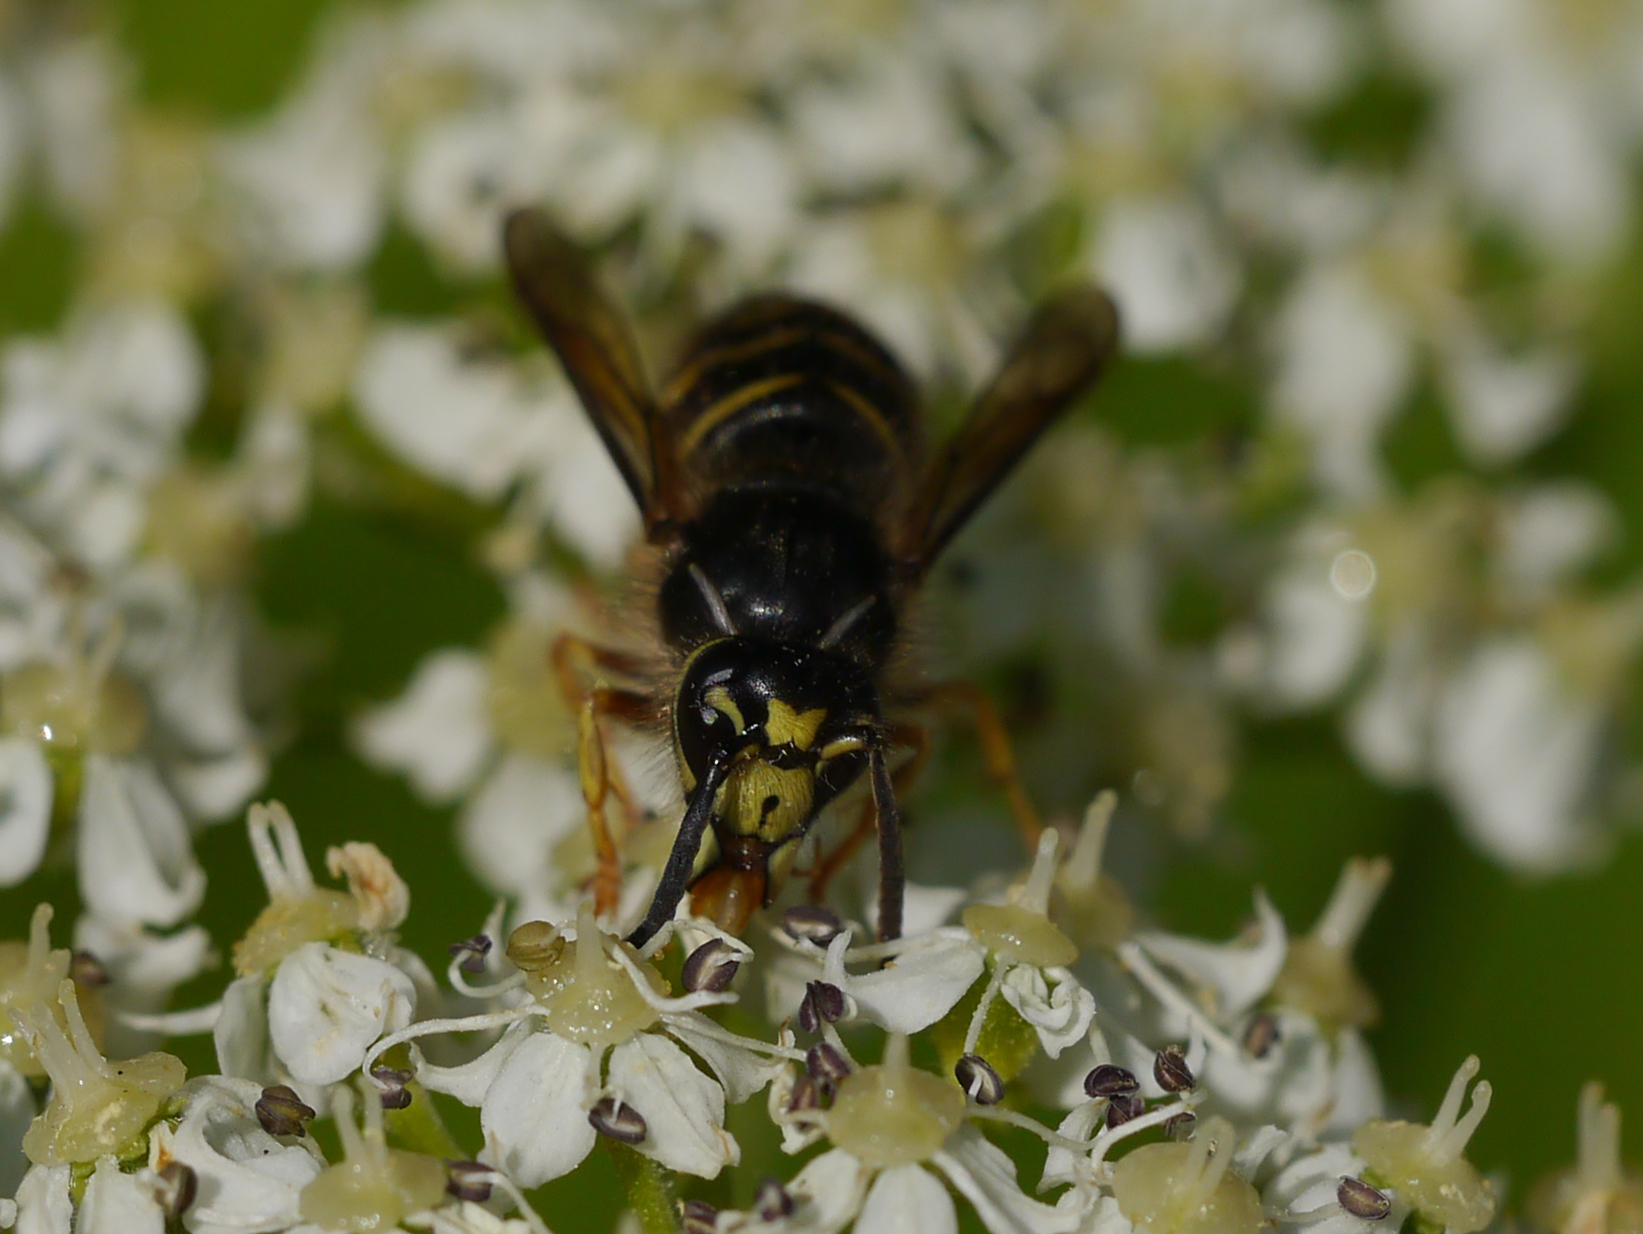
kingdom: Animalia
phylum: Arthropoda
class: Insecta
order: Hymenoptera
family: Vespidae
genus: Dolichovespula
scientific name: Dolichovespula arenaria
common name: Aerial yellowjacket
